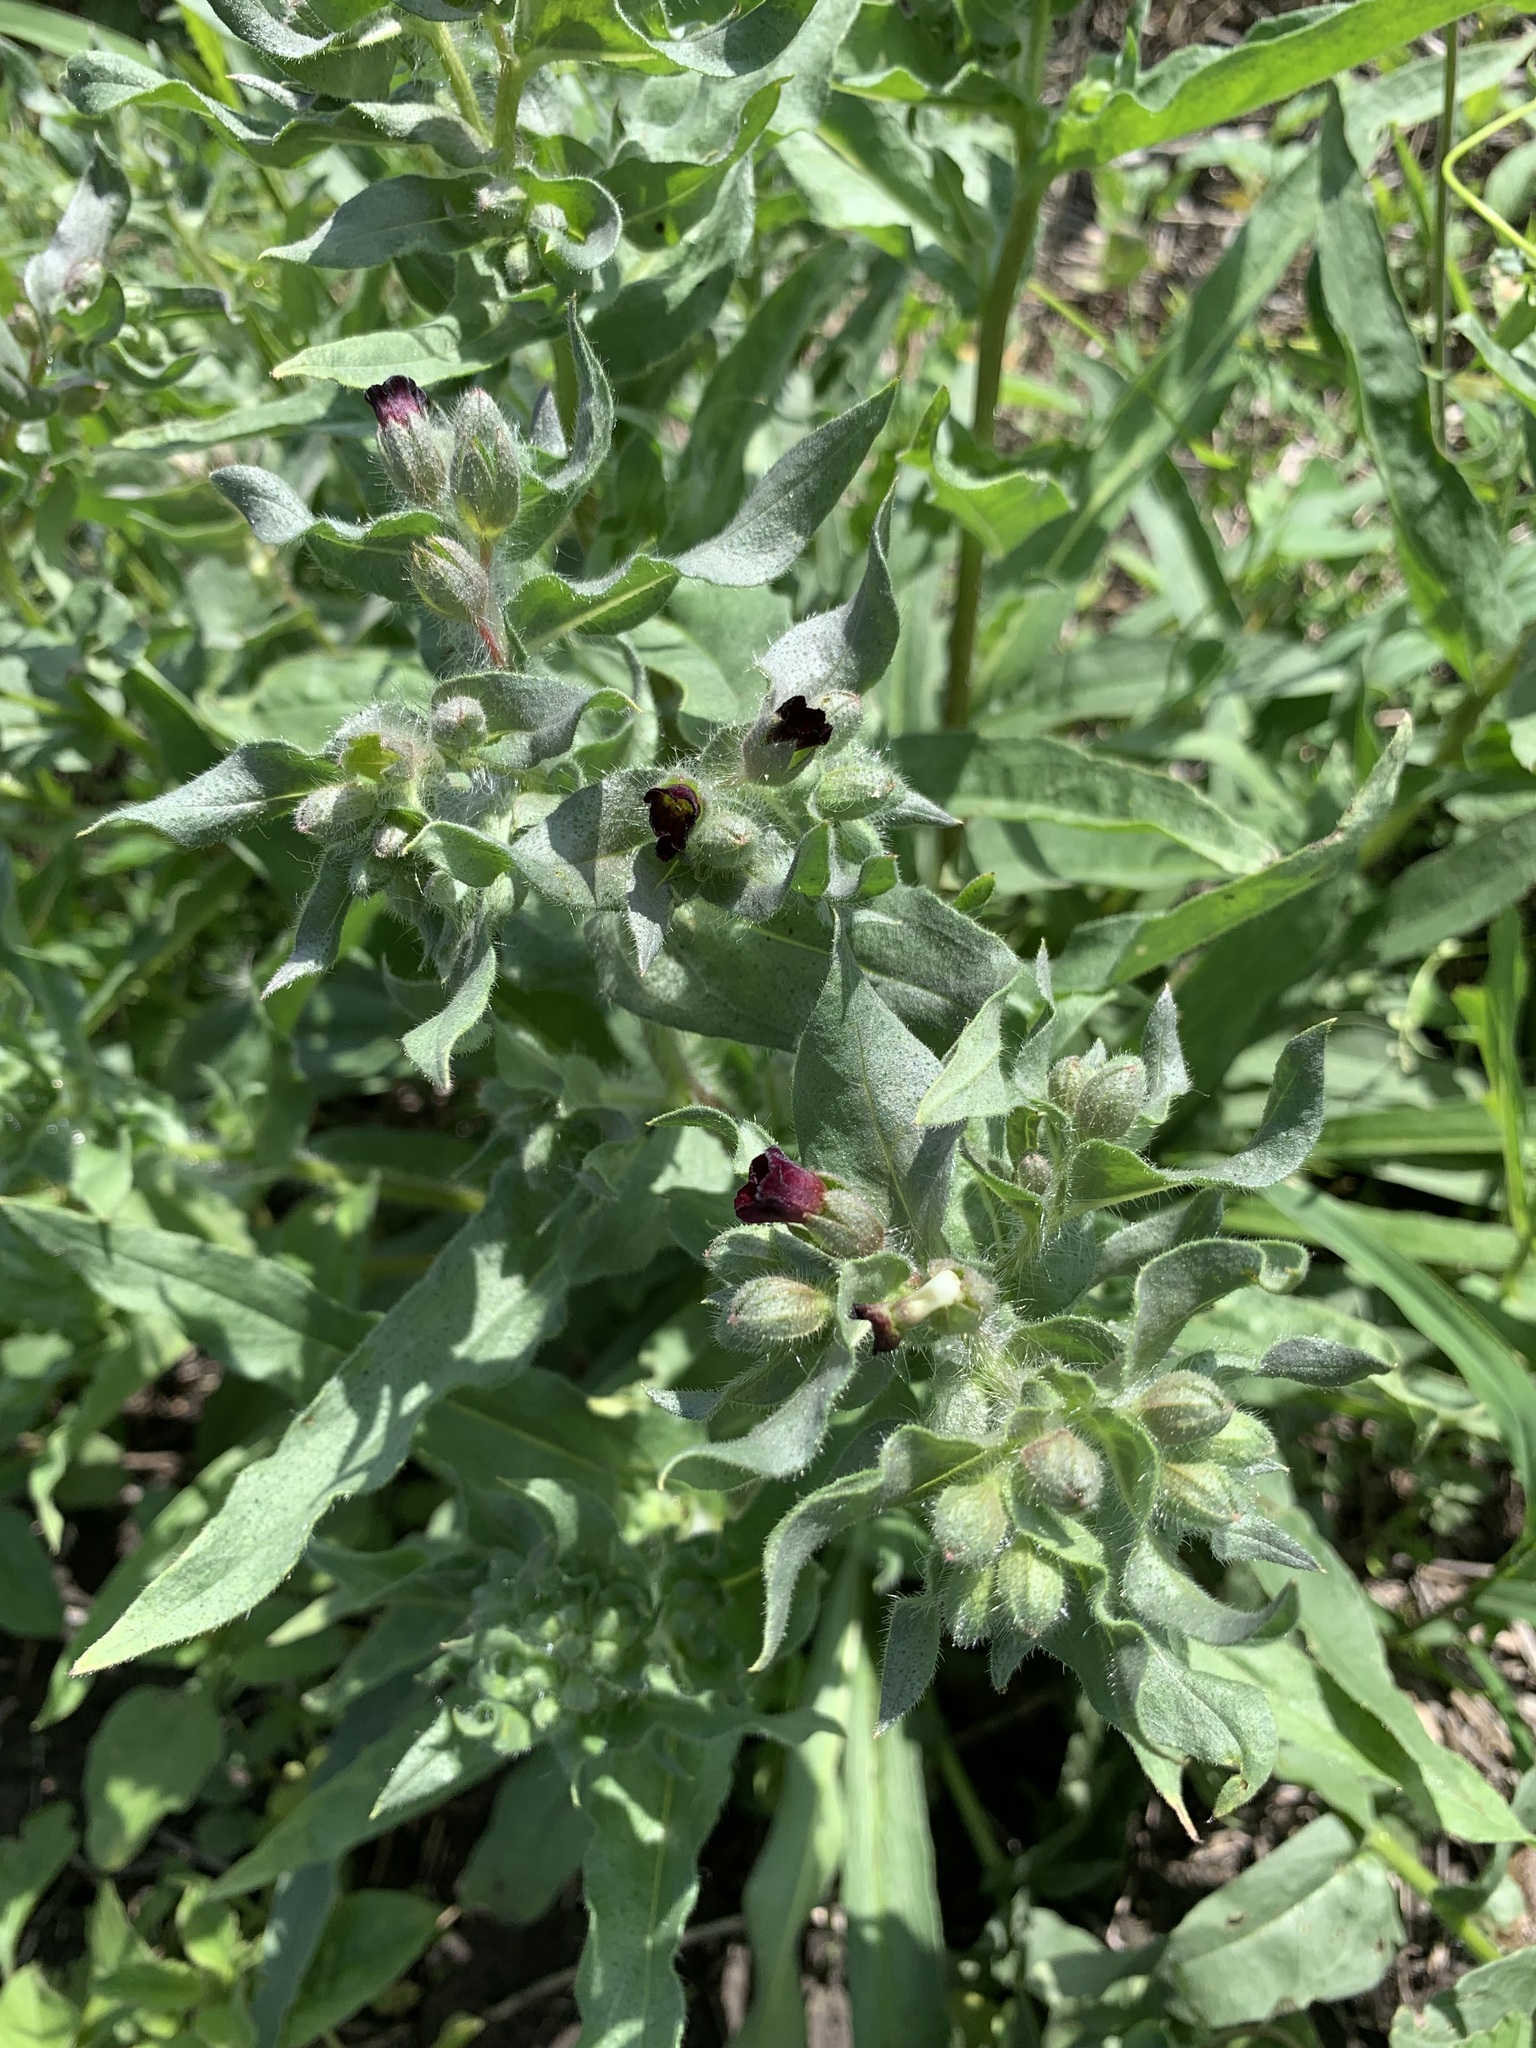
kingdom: Plantae
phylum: Tracheophyta
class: Magnoliopsida
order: Boraginales
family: Boraginaceae
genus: Nonea
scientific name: Nonea pulla
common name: Brown nonea
